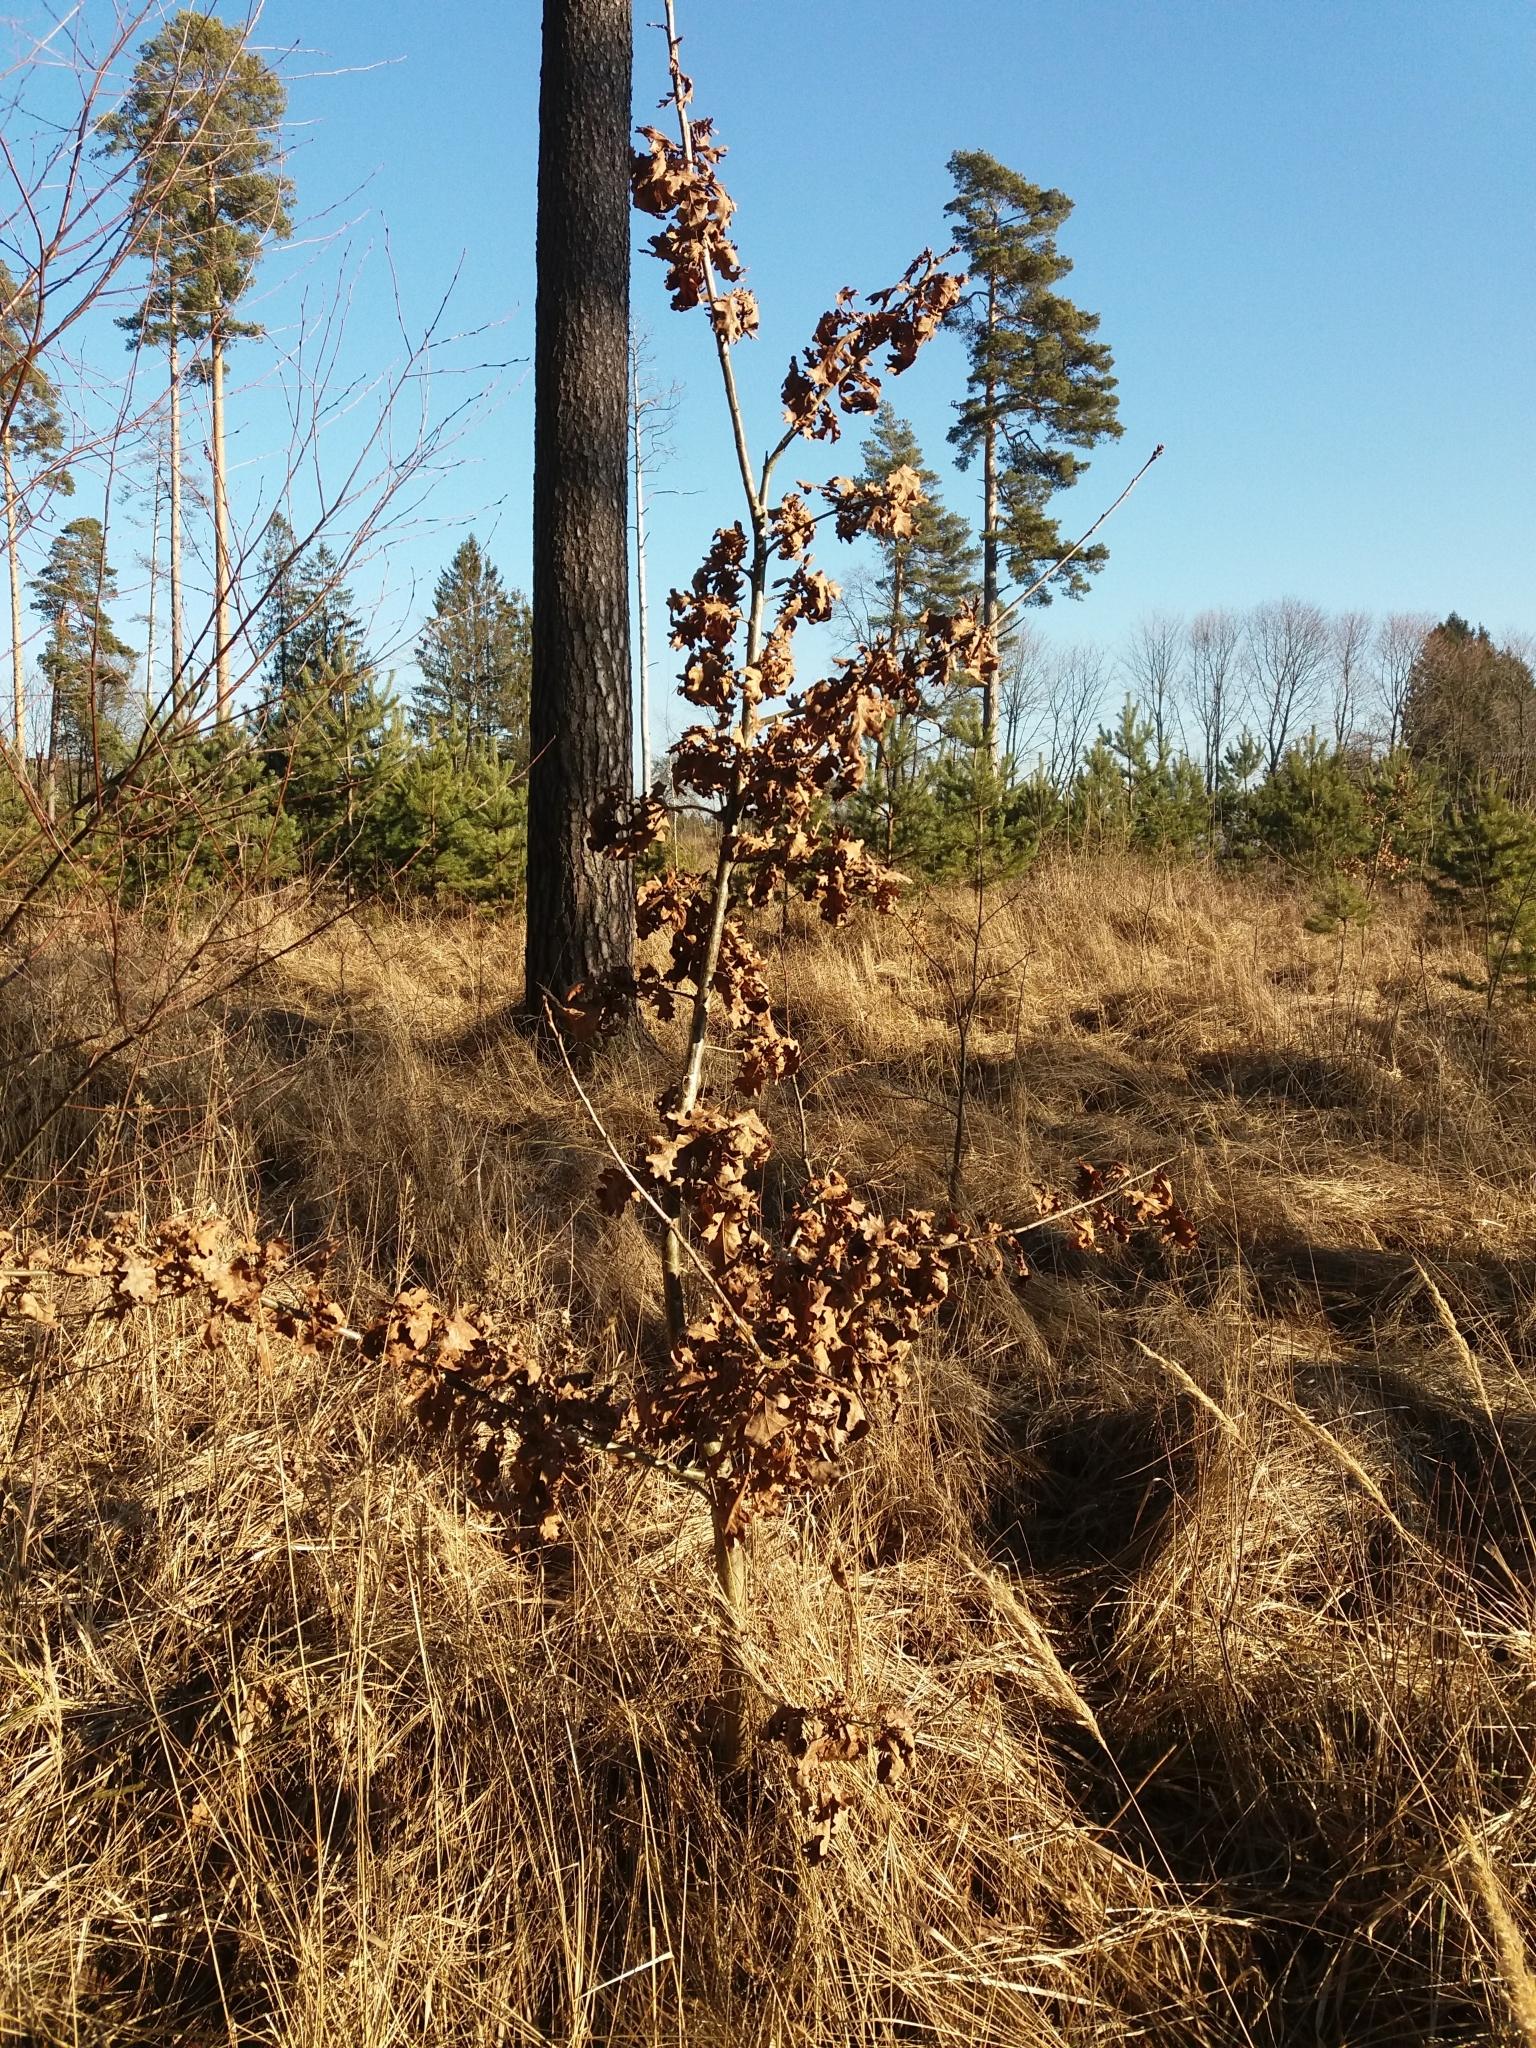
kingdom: Plantae
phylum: Tracheophyta
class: Magnoliopsida
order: Fagales
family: Fagaceae
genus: Quercus
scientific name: Quercus robur
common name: Pedunculate oak
